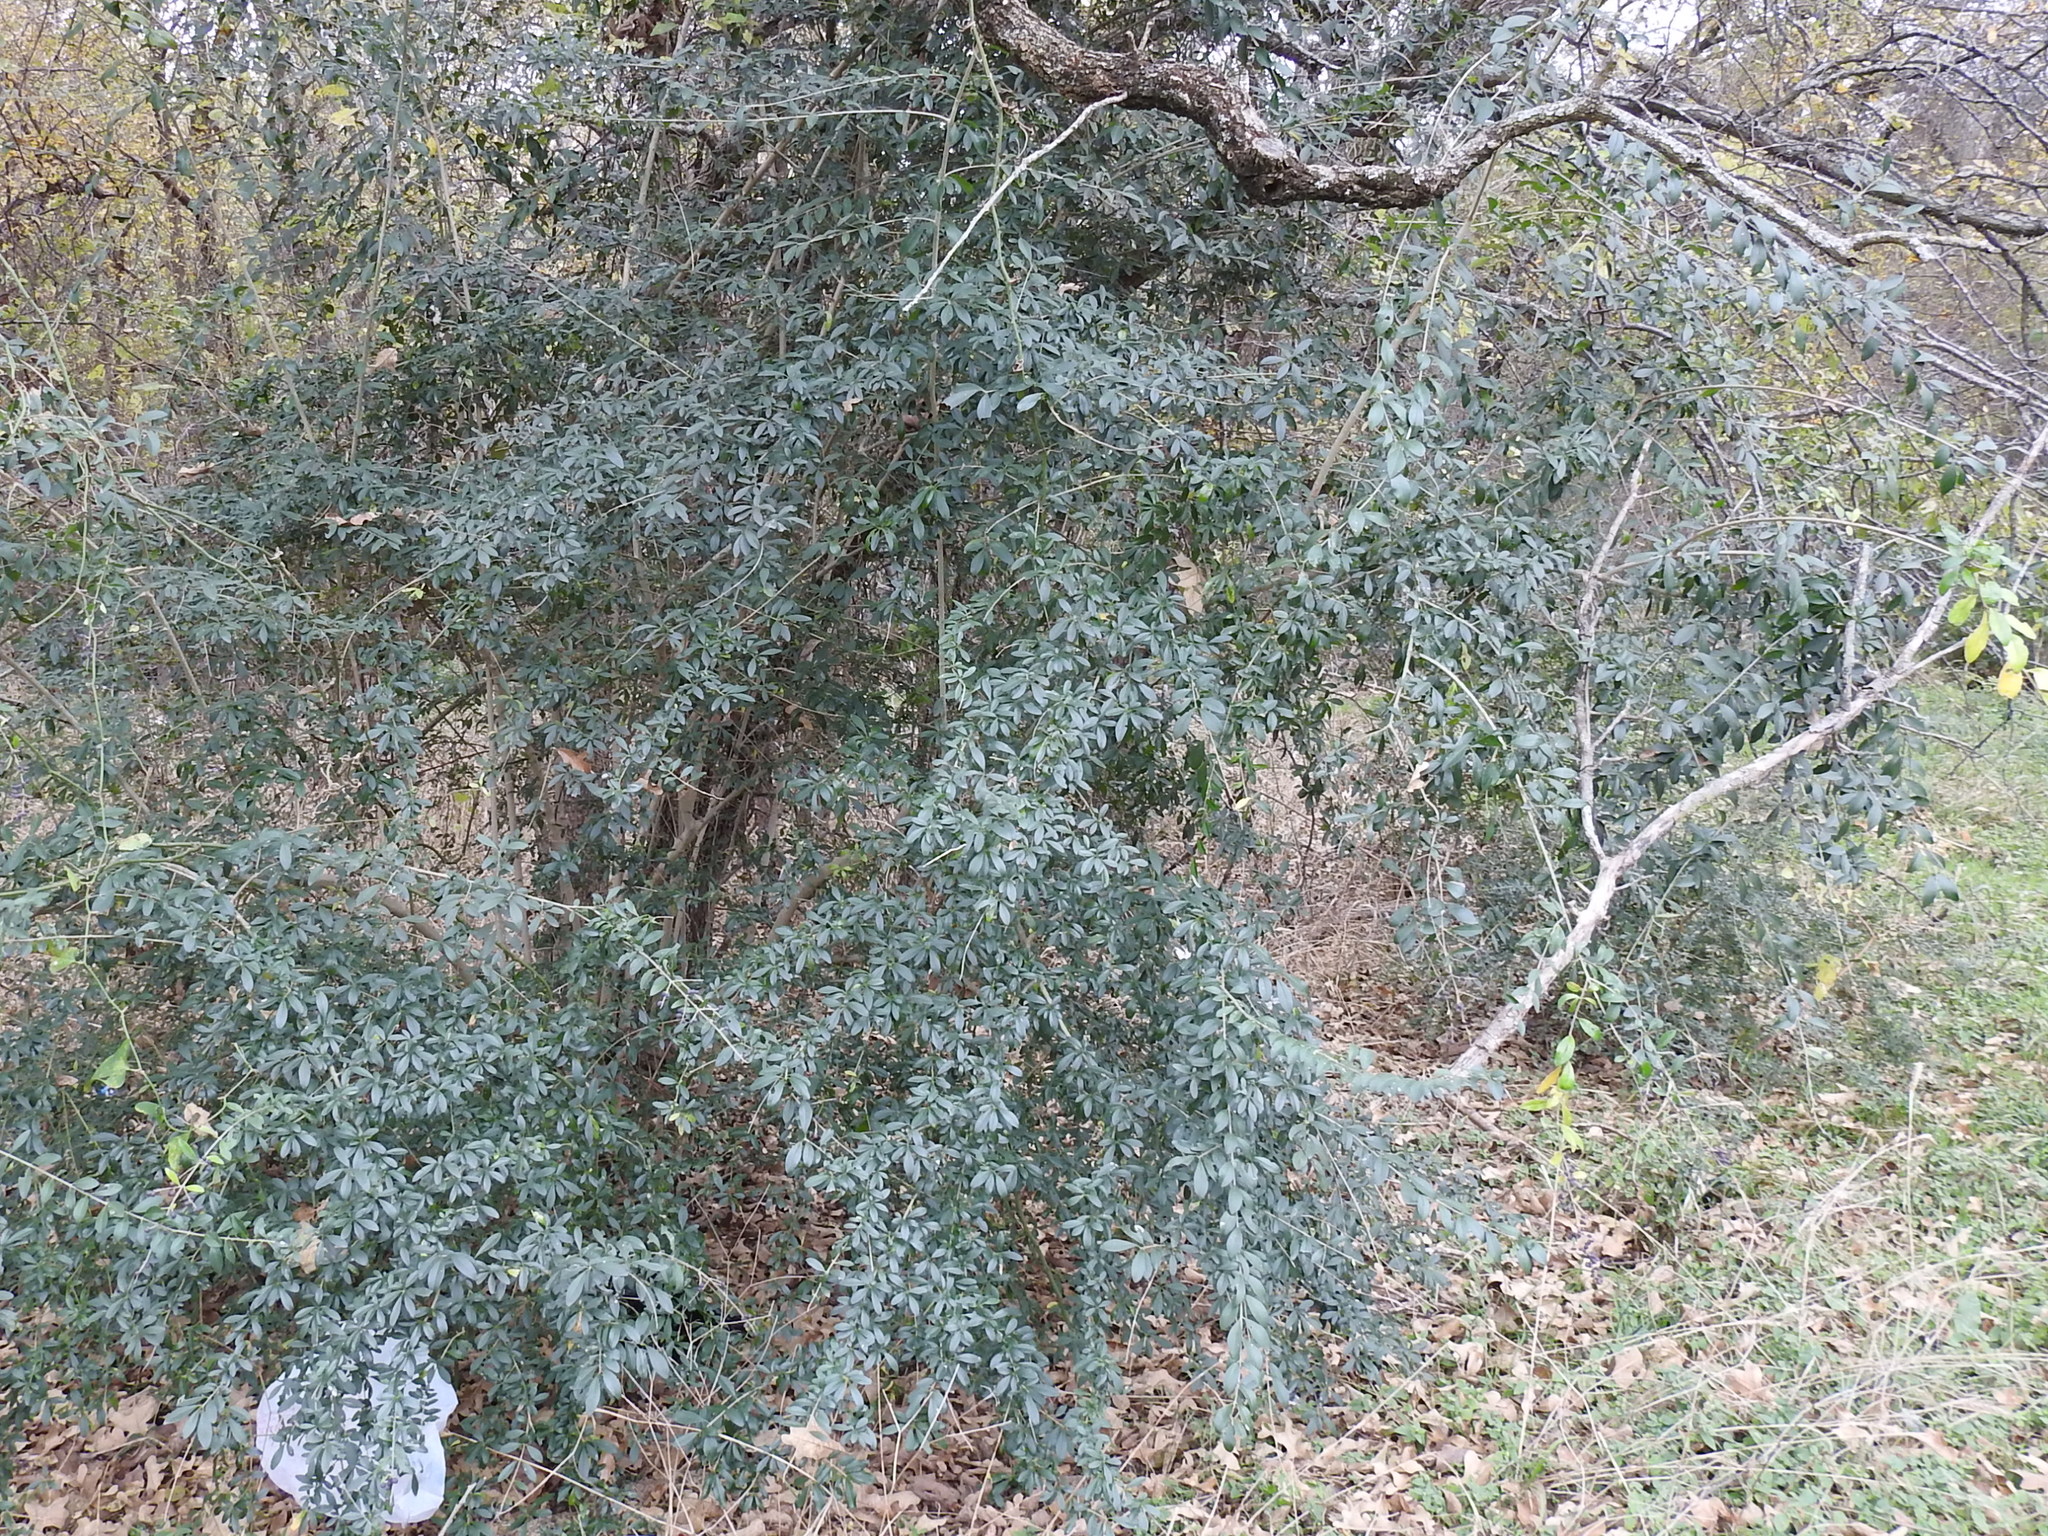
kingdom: Plantae
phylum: Tracheophyta
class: Magnoliopsida
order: Lamiales
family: Oleaceae
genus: Ligustrum
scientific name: Ligustrum quihoui
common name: Waxyleaf privet
